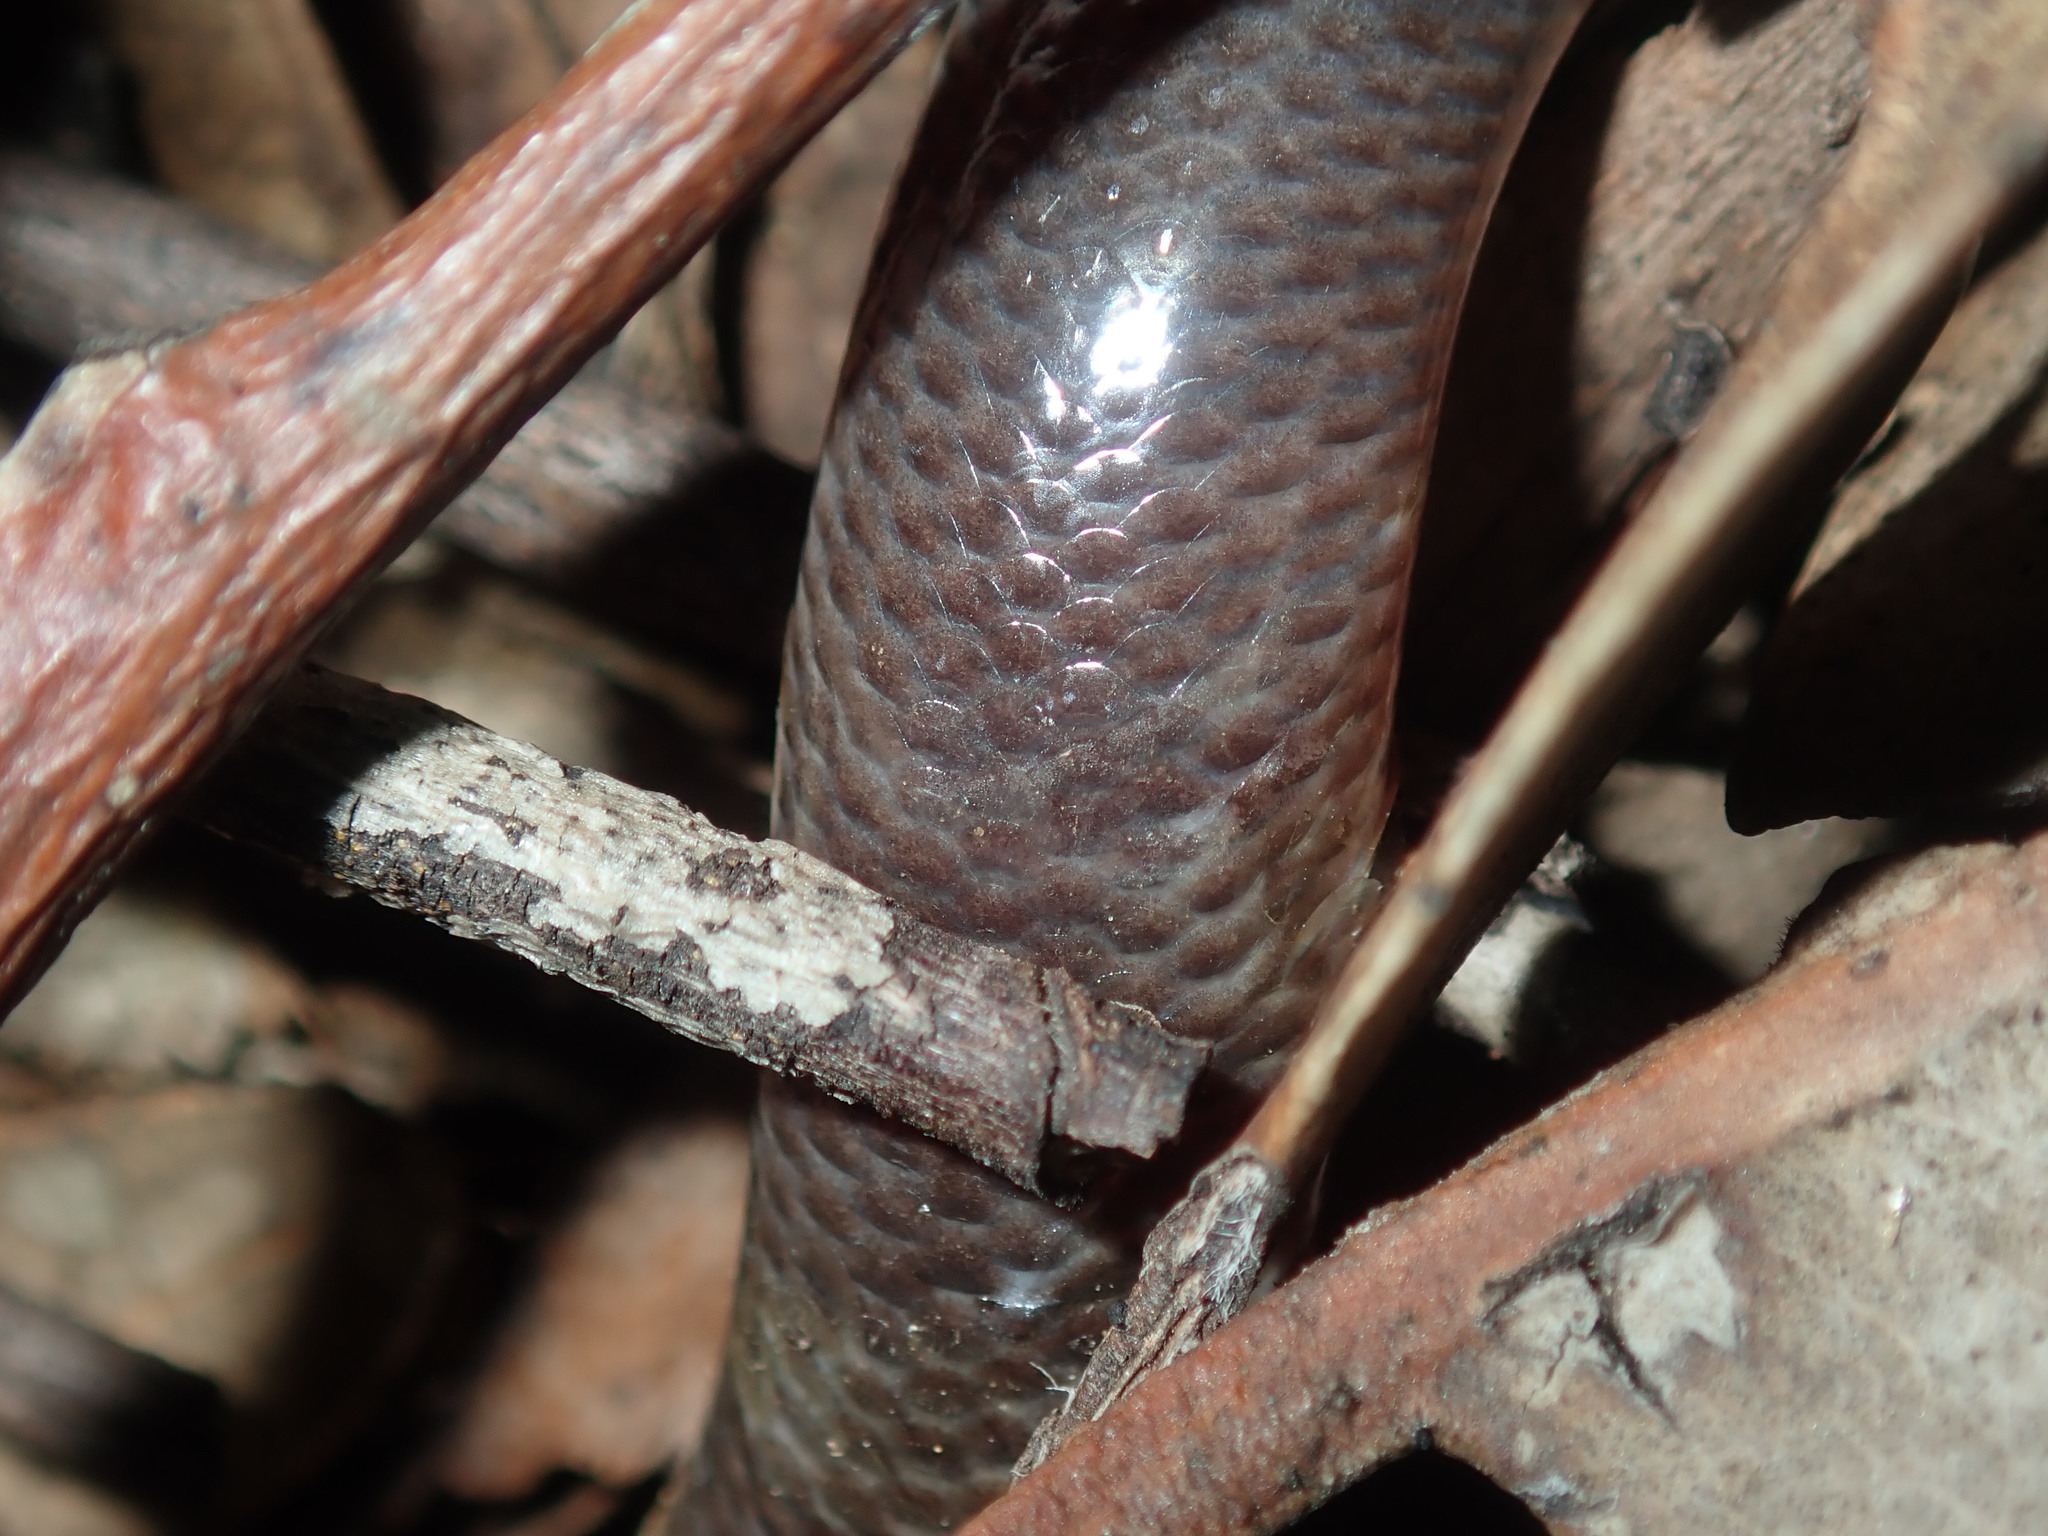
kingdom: Animalia
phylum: Chordata
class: Squamata
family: Typhlopidae
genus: Anilios
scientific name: Anilios nigrescens
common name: Blackish blind snake
